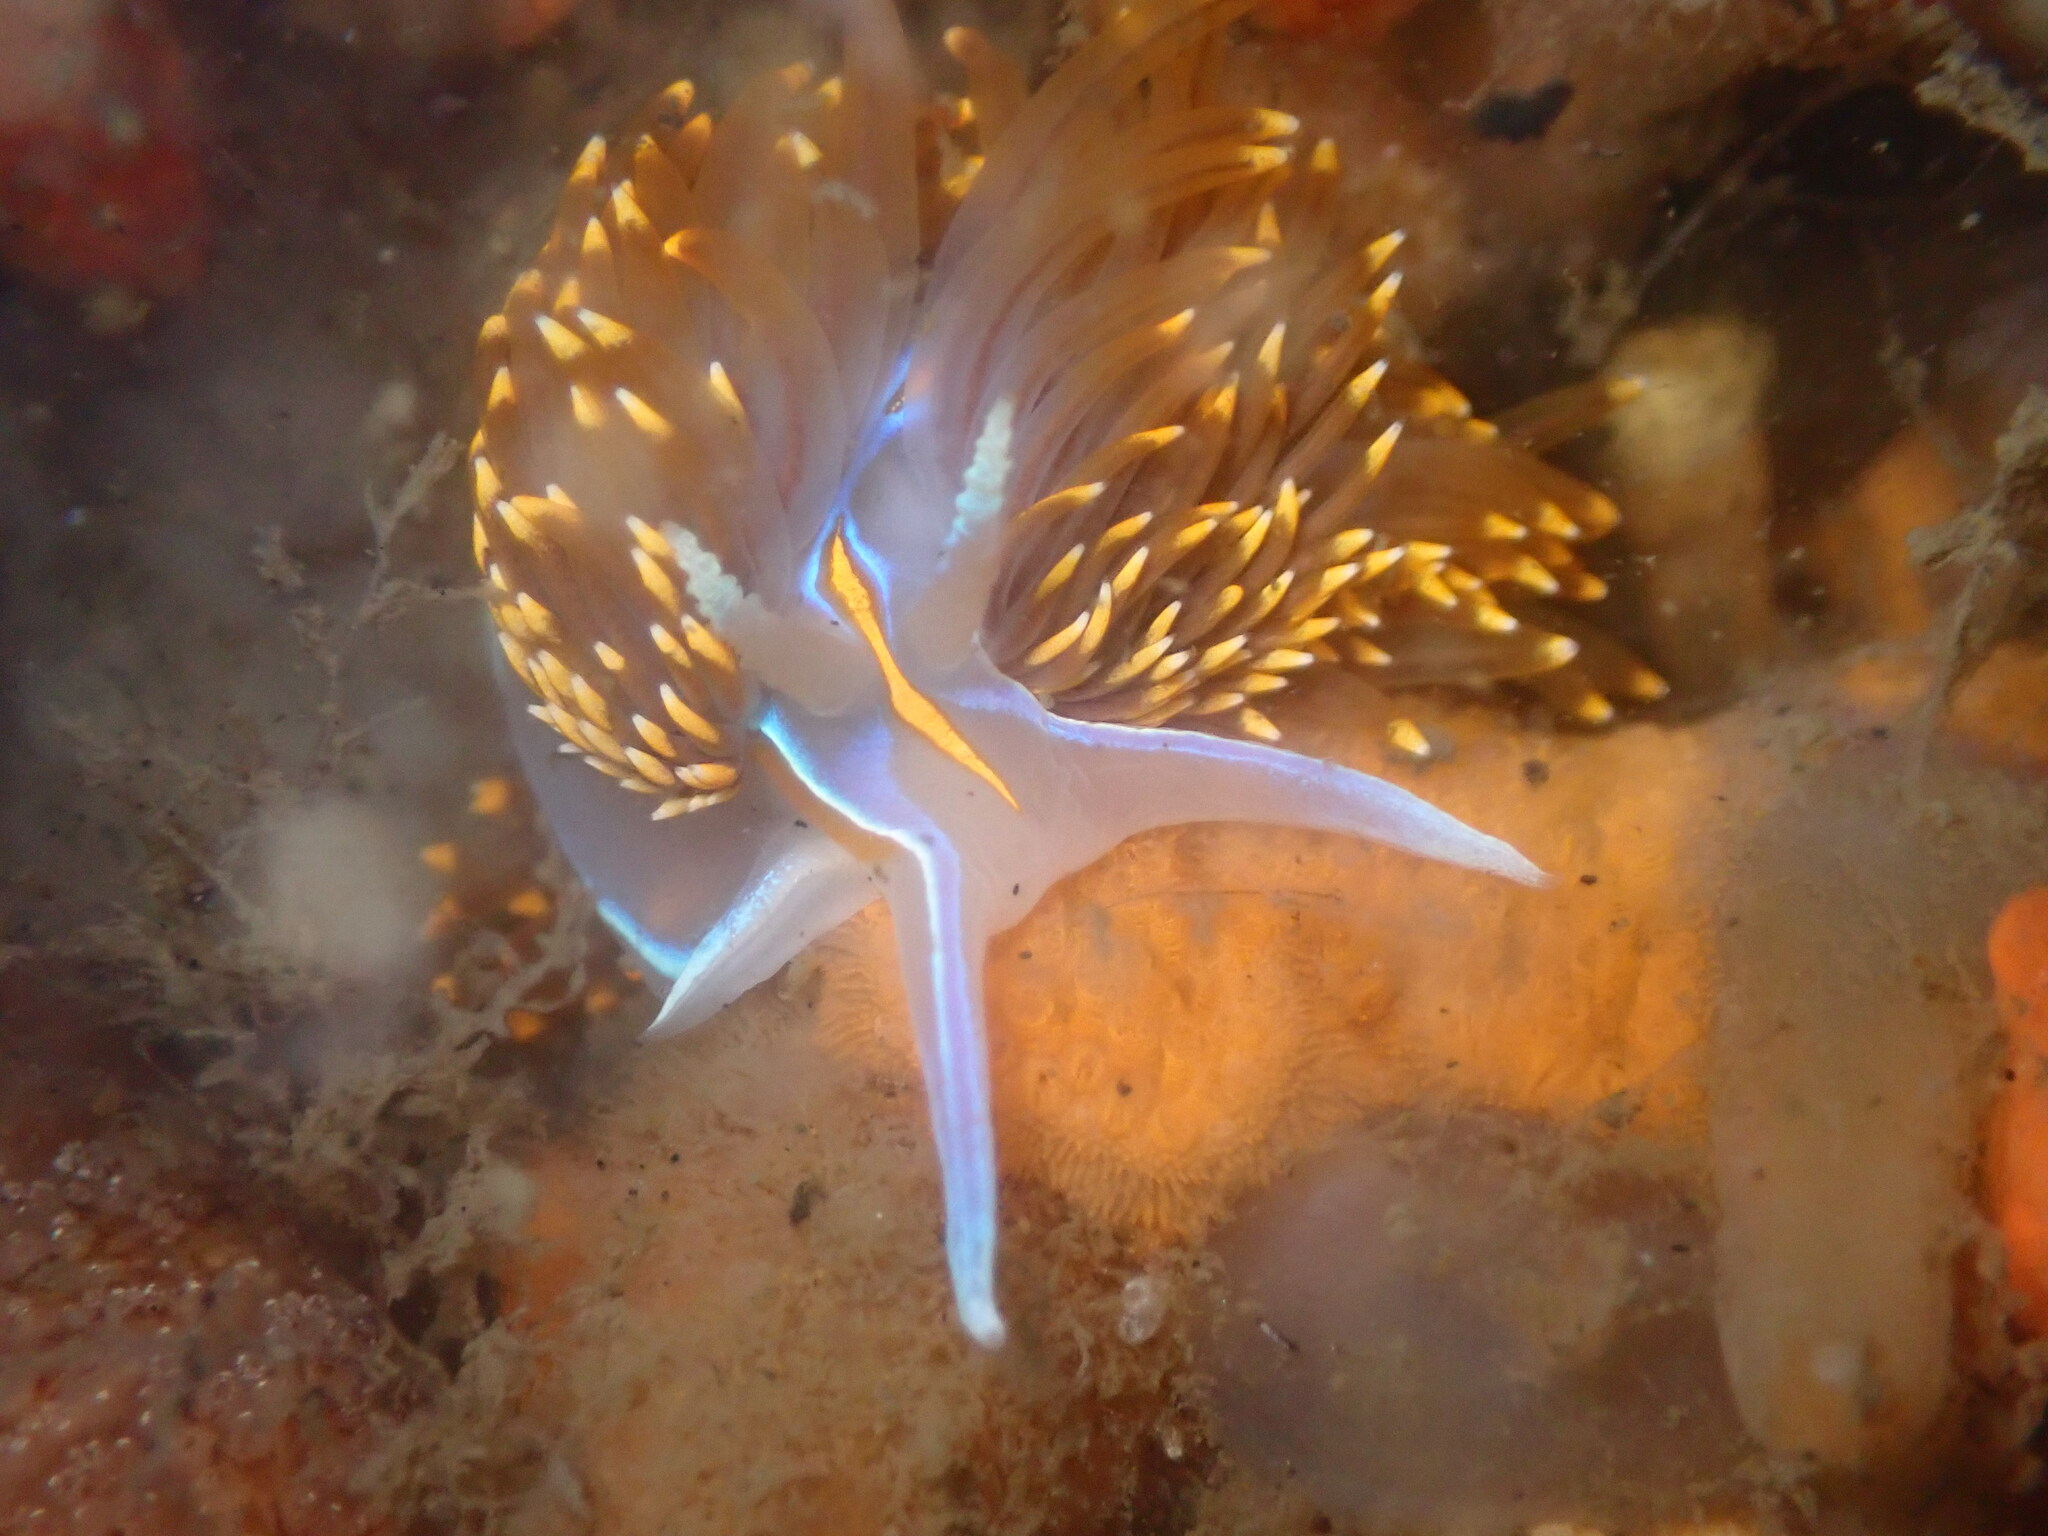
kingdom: Animalia
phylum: Mollusca
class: Gastropoda
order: Nudibranchia
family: Myrrhinidae
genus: Hermissenda
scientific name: Hermissenda opalescens
